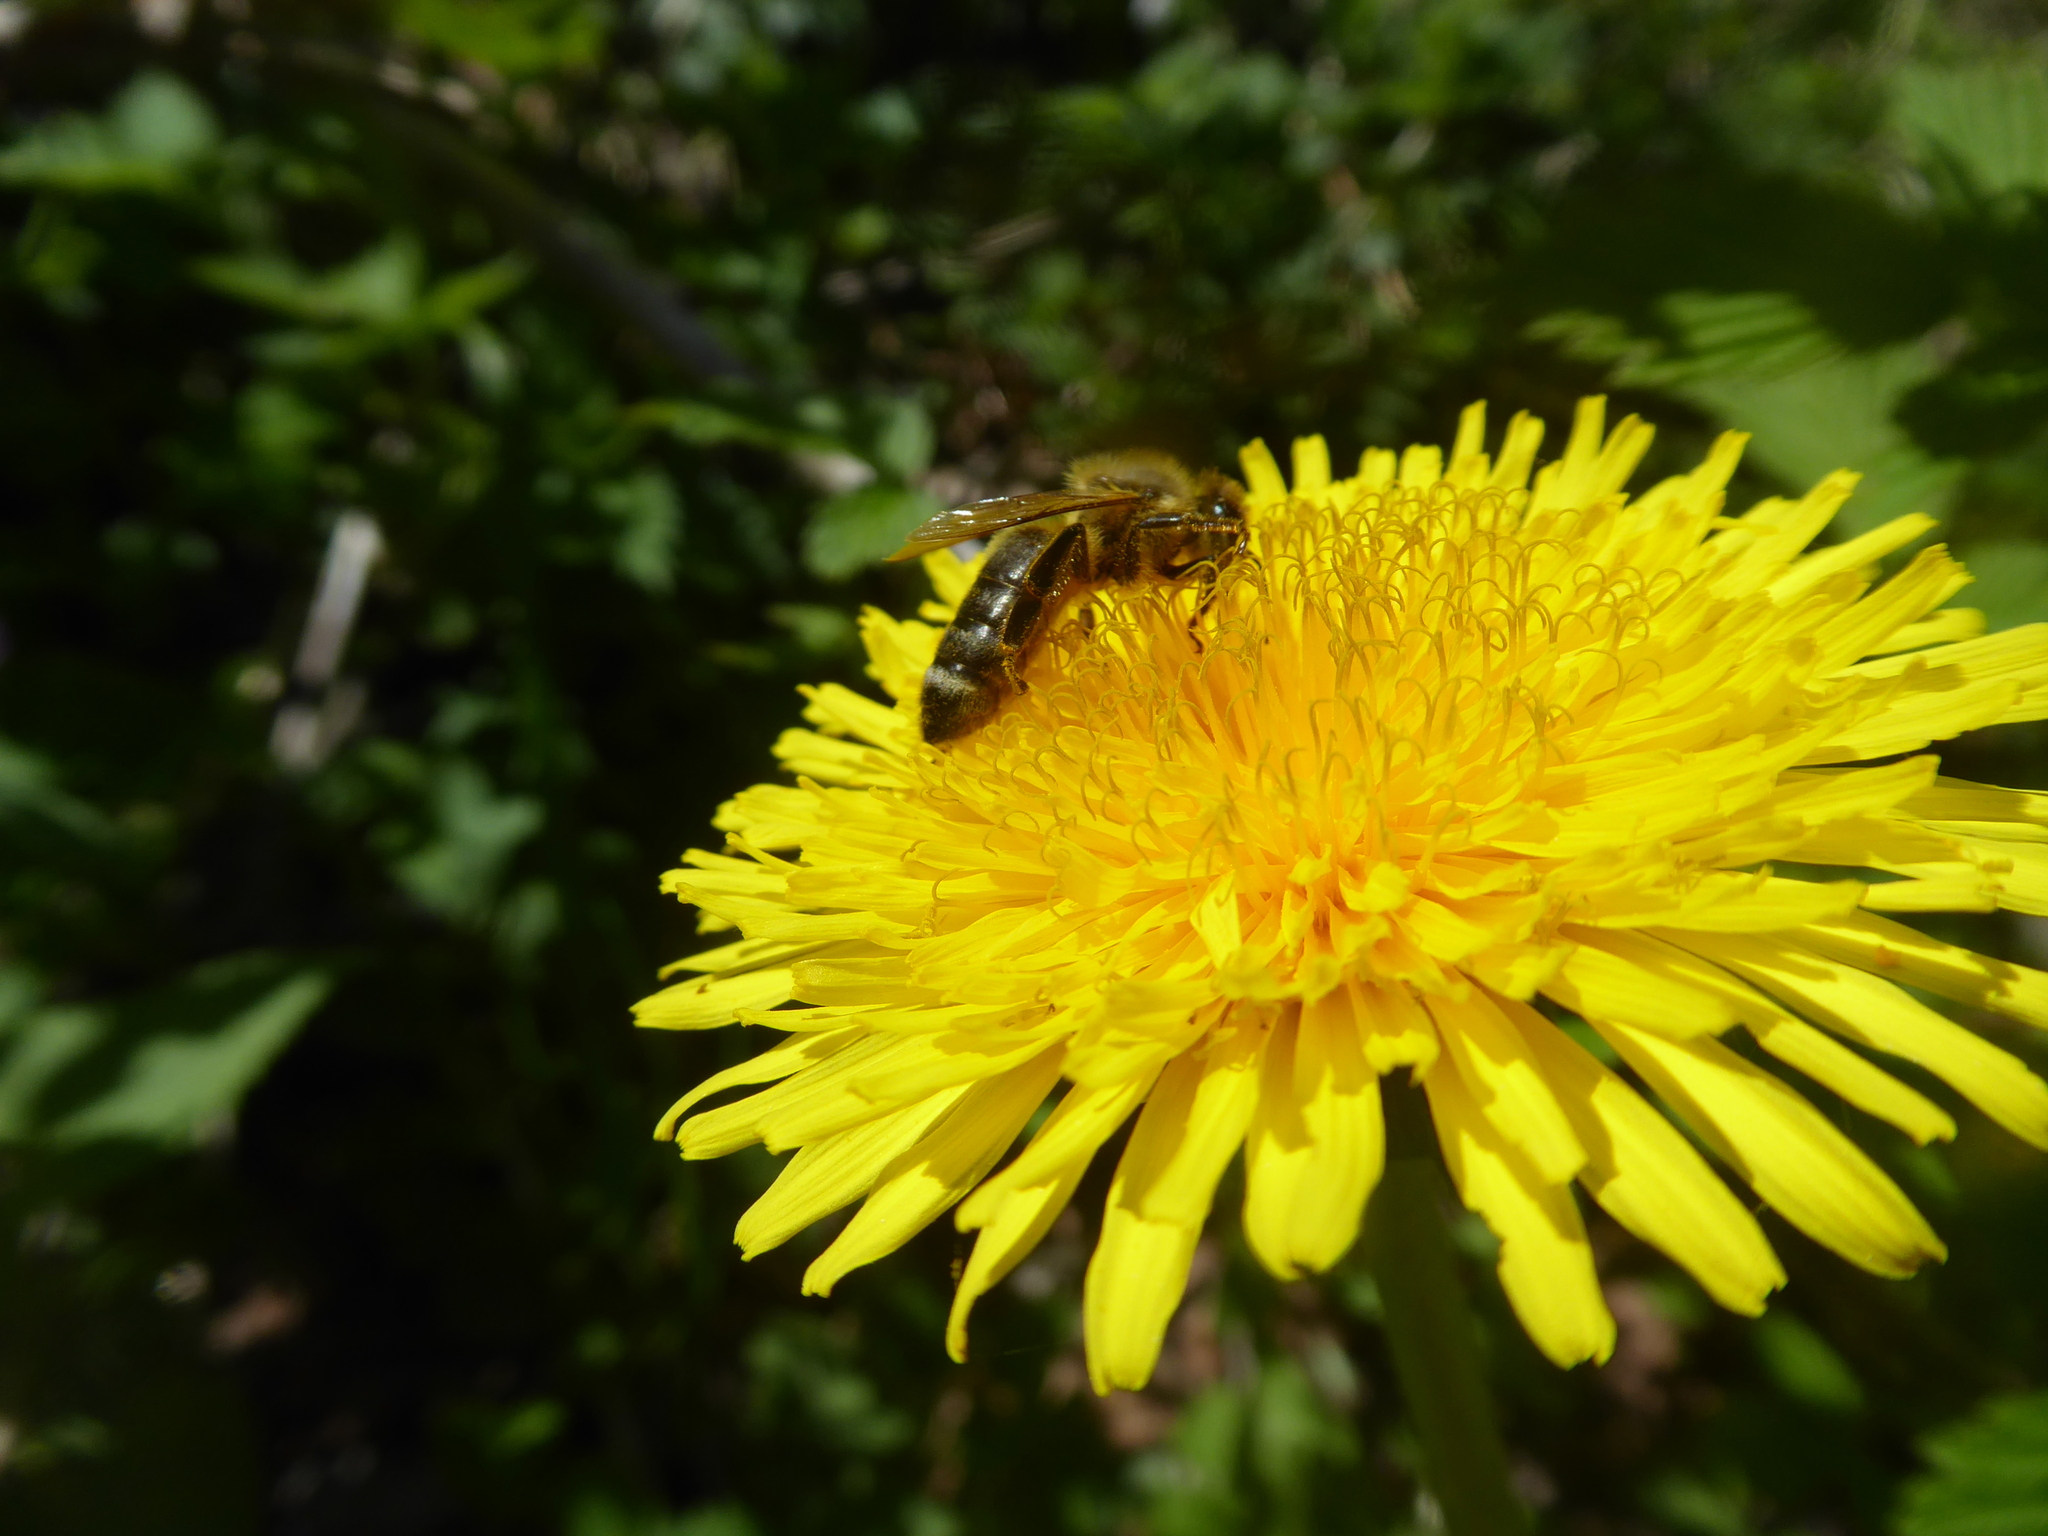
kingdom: Animalia
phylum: Arthropoda
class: Insecta
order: Hymenoptera
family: Apidae
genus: Apis
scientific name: Apis mellifera
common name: Honey bee
